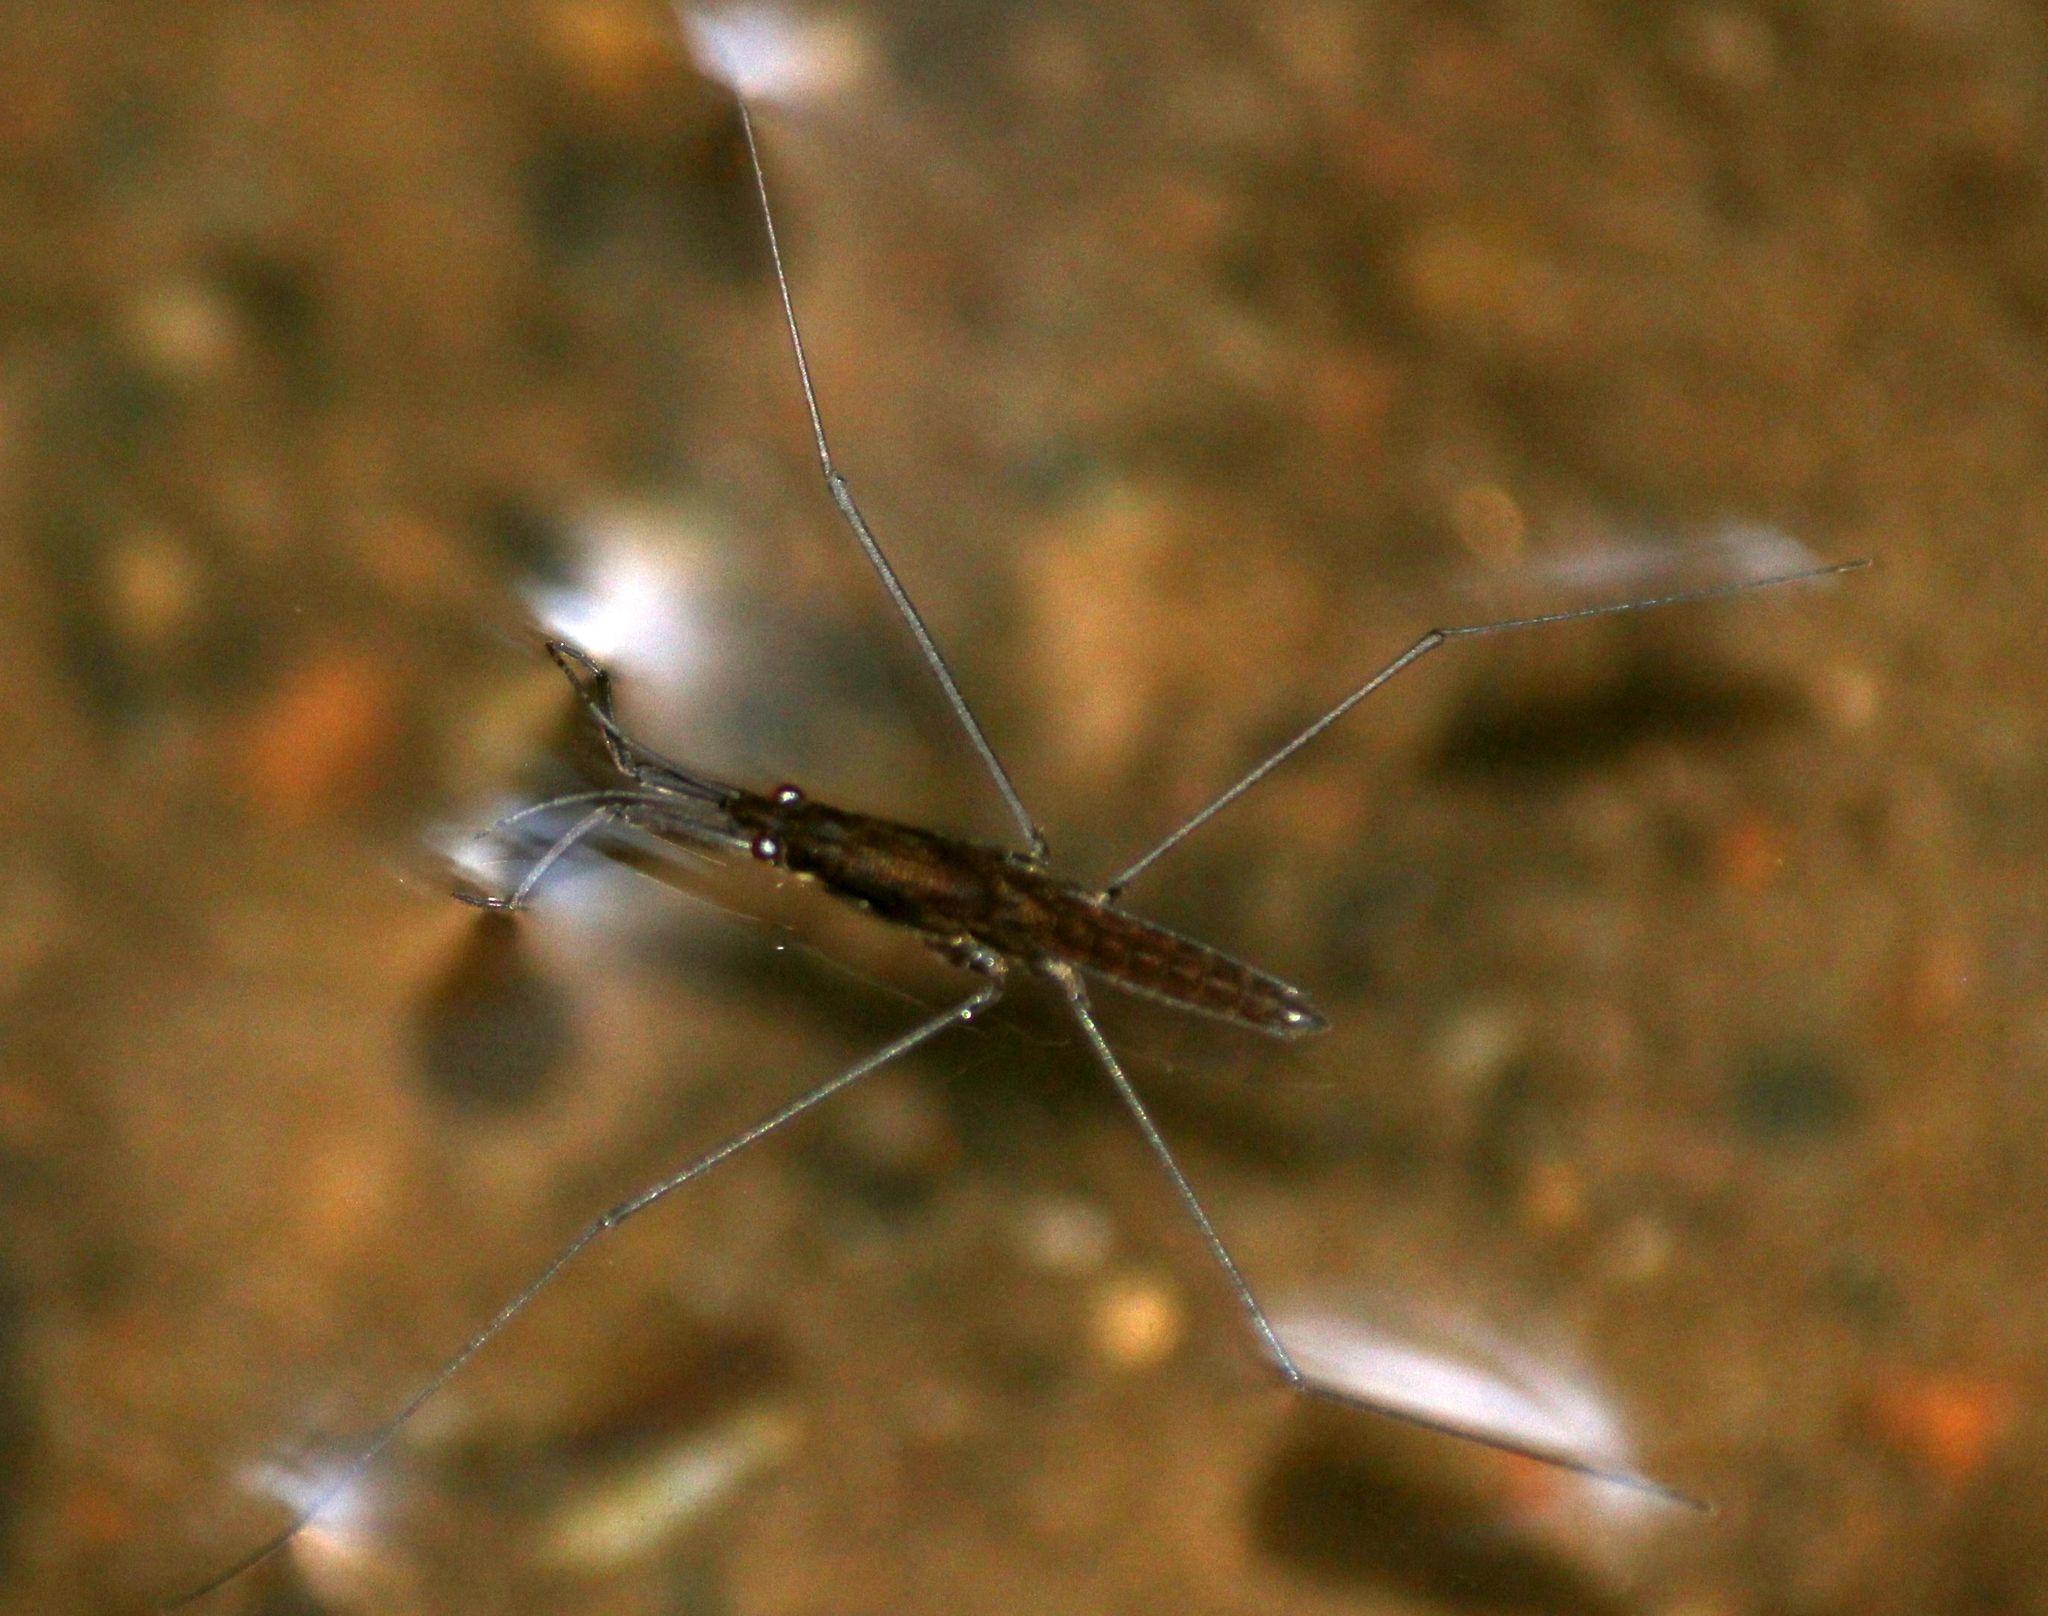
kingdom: Animalia
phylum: Arthropoda
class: Insecta
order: Hemiptera
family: Gerridae
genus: Aquarius
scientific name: Aquarius najas
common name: River skater
